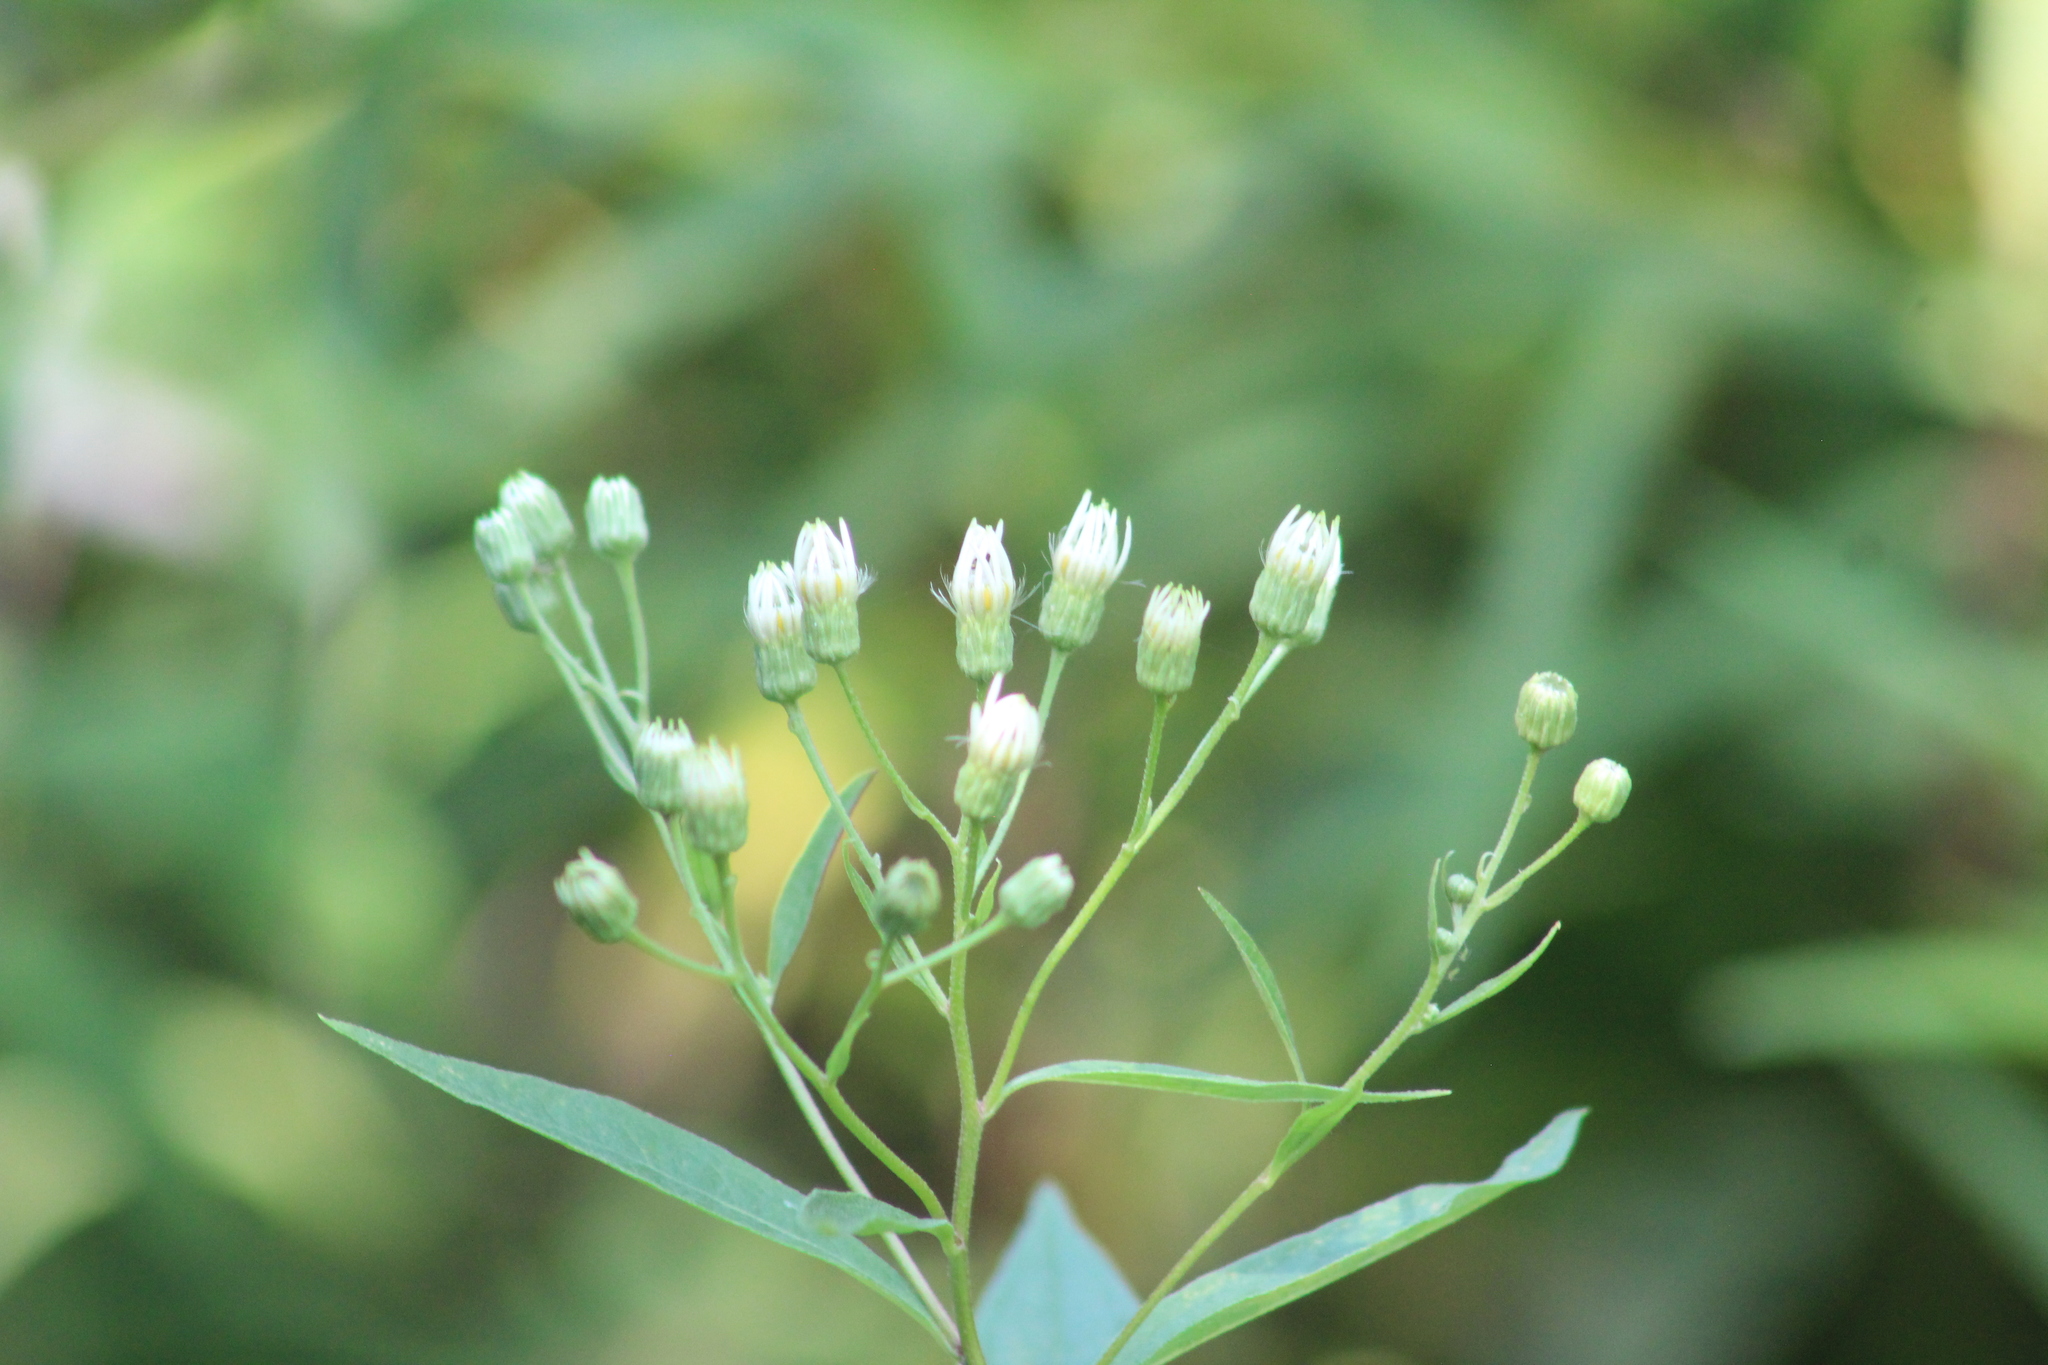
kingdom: Plantae
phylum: Tracheophyta
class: Magnoliopsida
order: Asterales
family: Asteraceae
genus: Doellingeria
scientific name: Doellingeria umbellata
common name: Flat-top white aster
